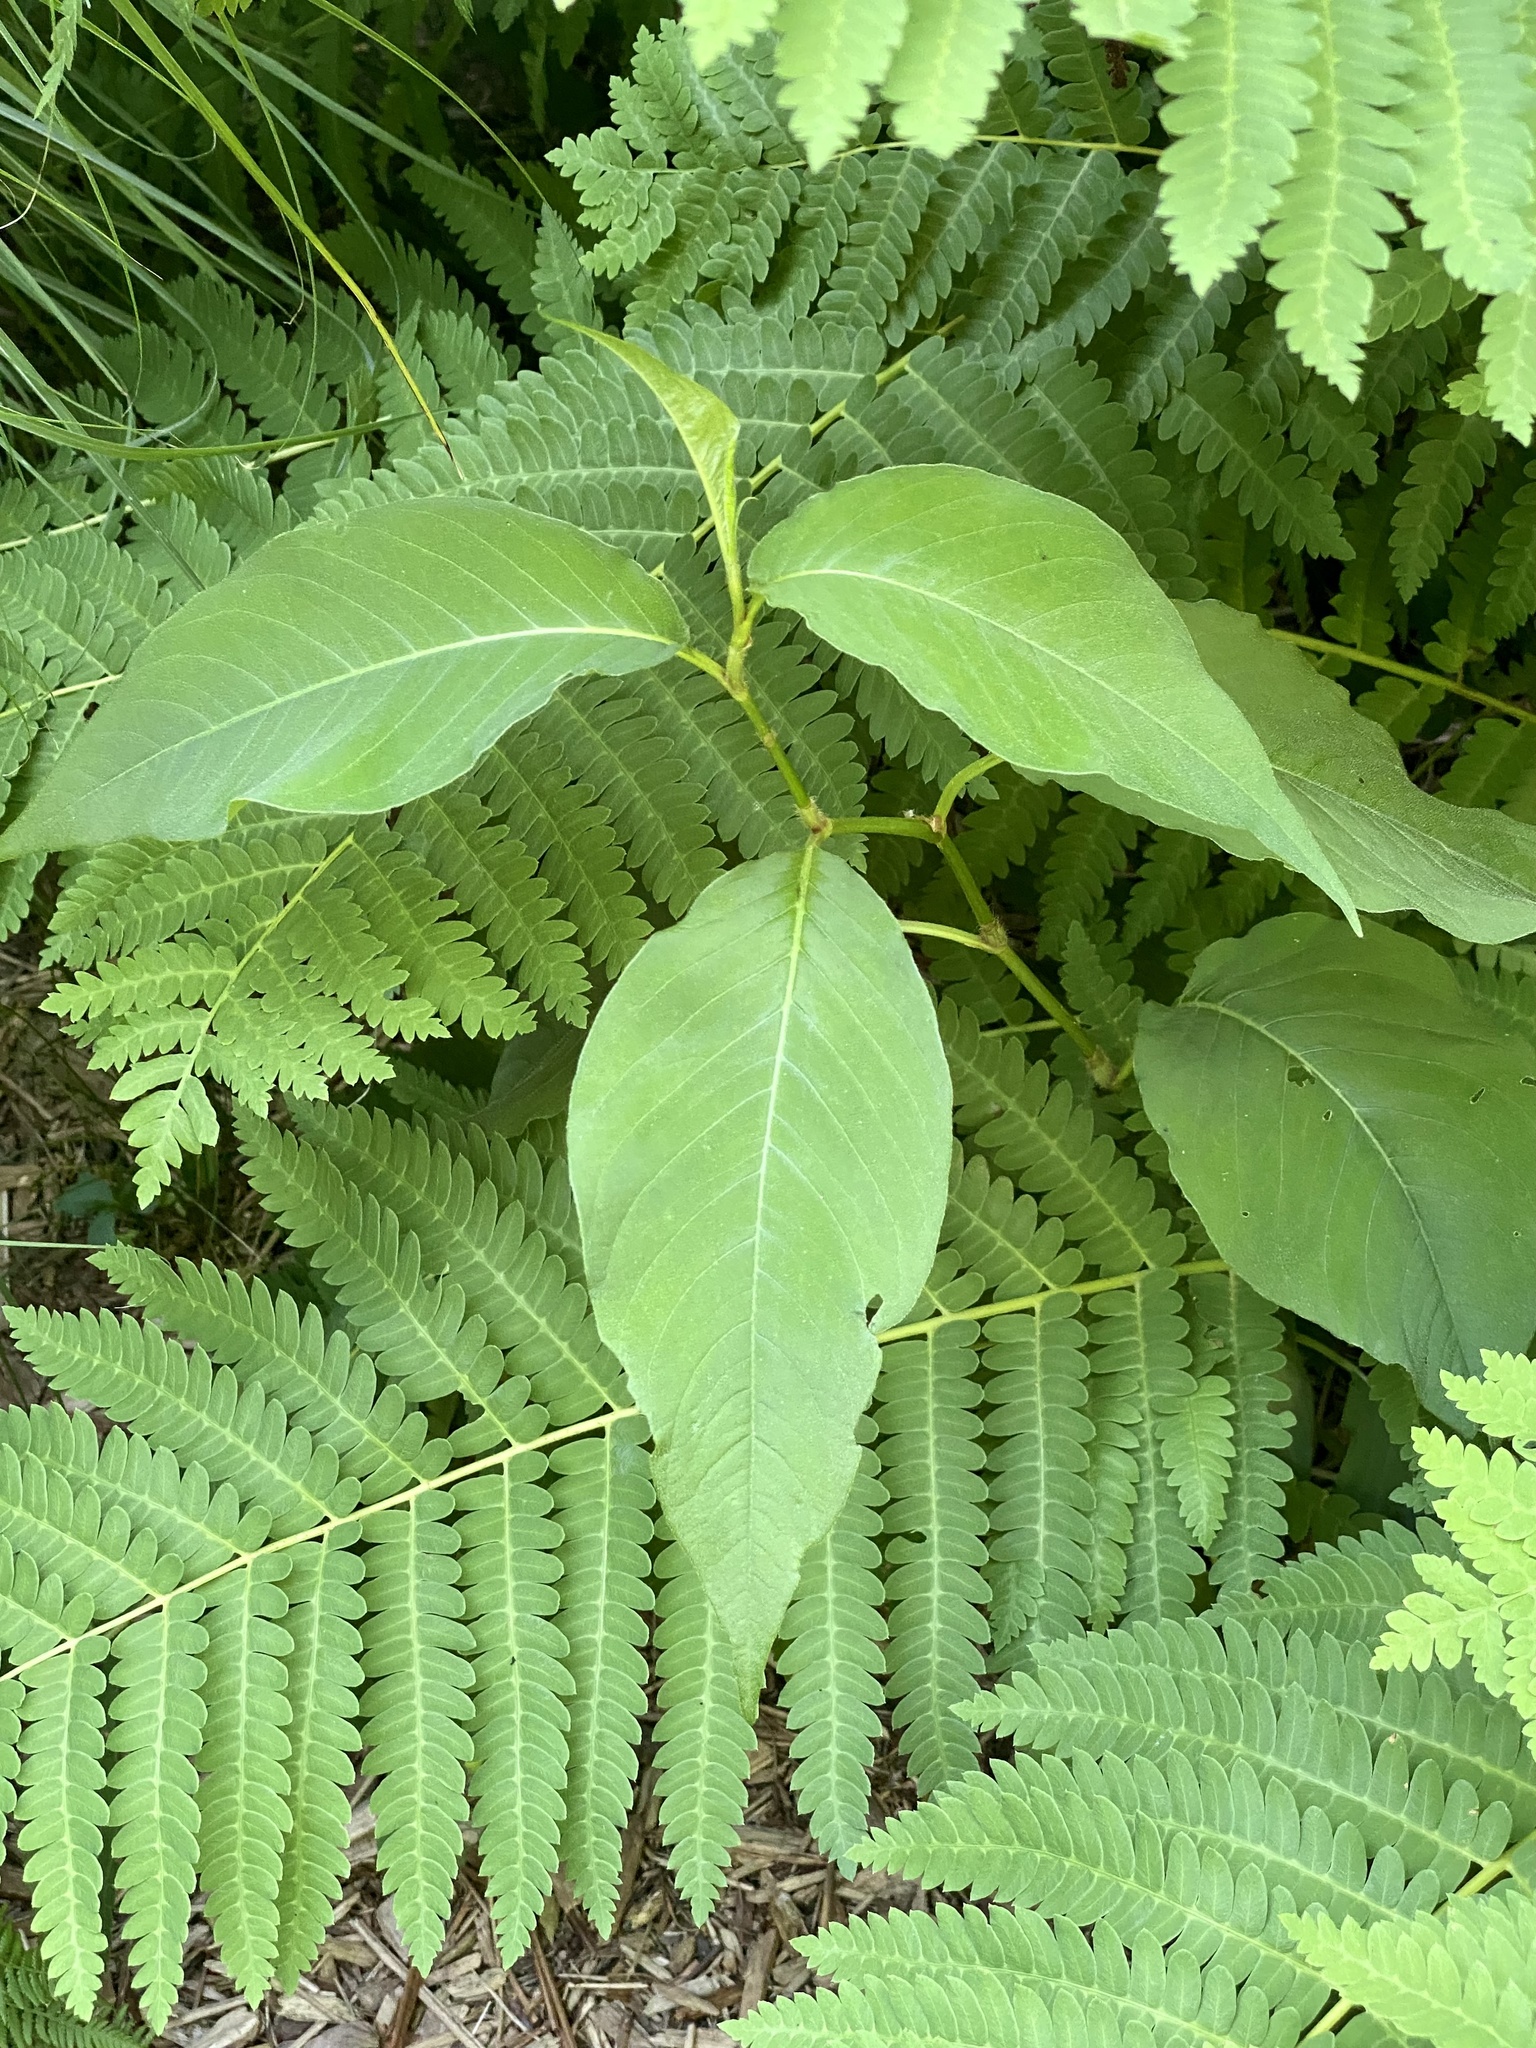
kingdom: Plantae
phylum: Tracheophyta
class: Magnoliopsida
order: Caryophyllales
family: Polygonaceae
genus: Persicaria
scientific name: Persicaria virginiana
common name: Jumpseed
